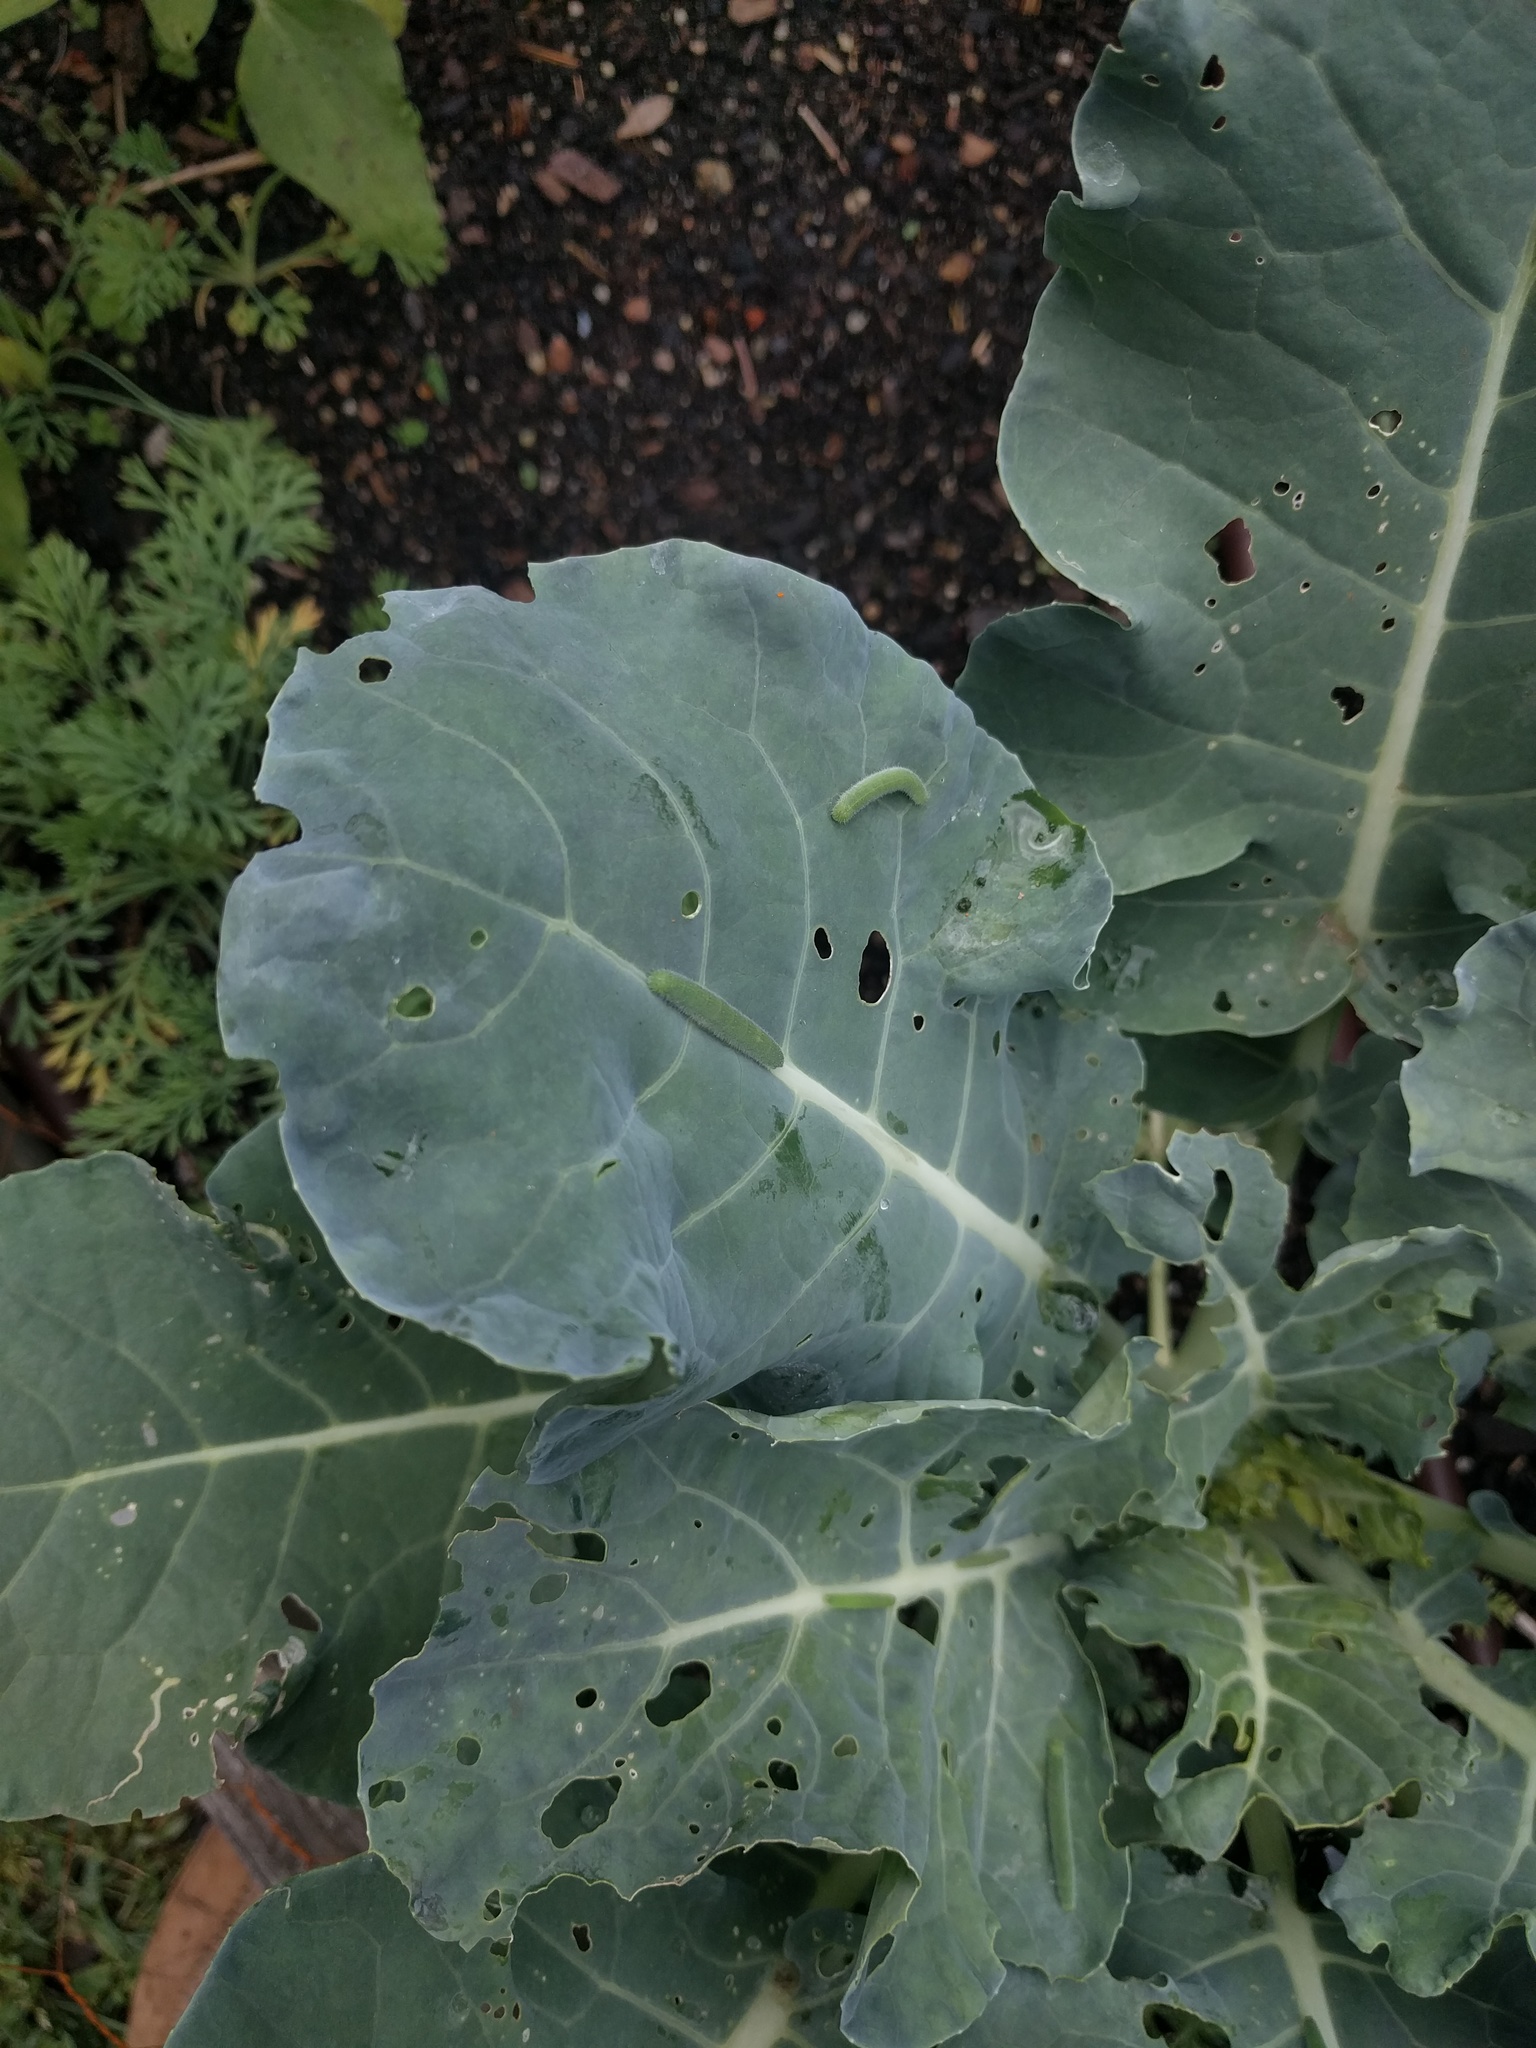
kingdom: Animalia
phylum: Arthropoda
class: Insecta
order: Lepidoptera
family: Pieridae
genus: Pieris
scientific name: Pieris rapae
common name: Small white
